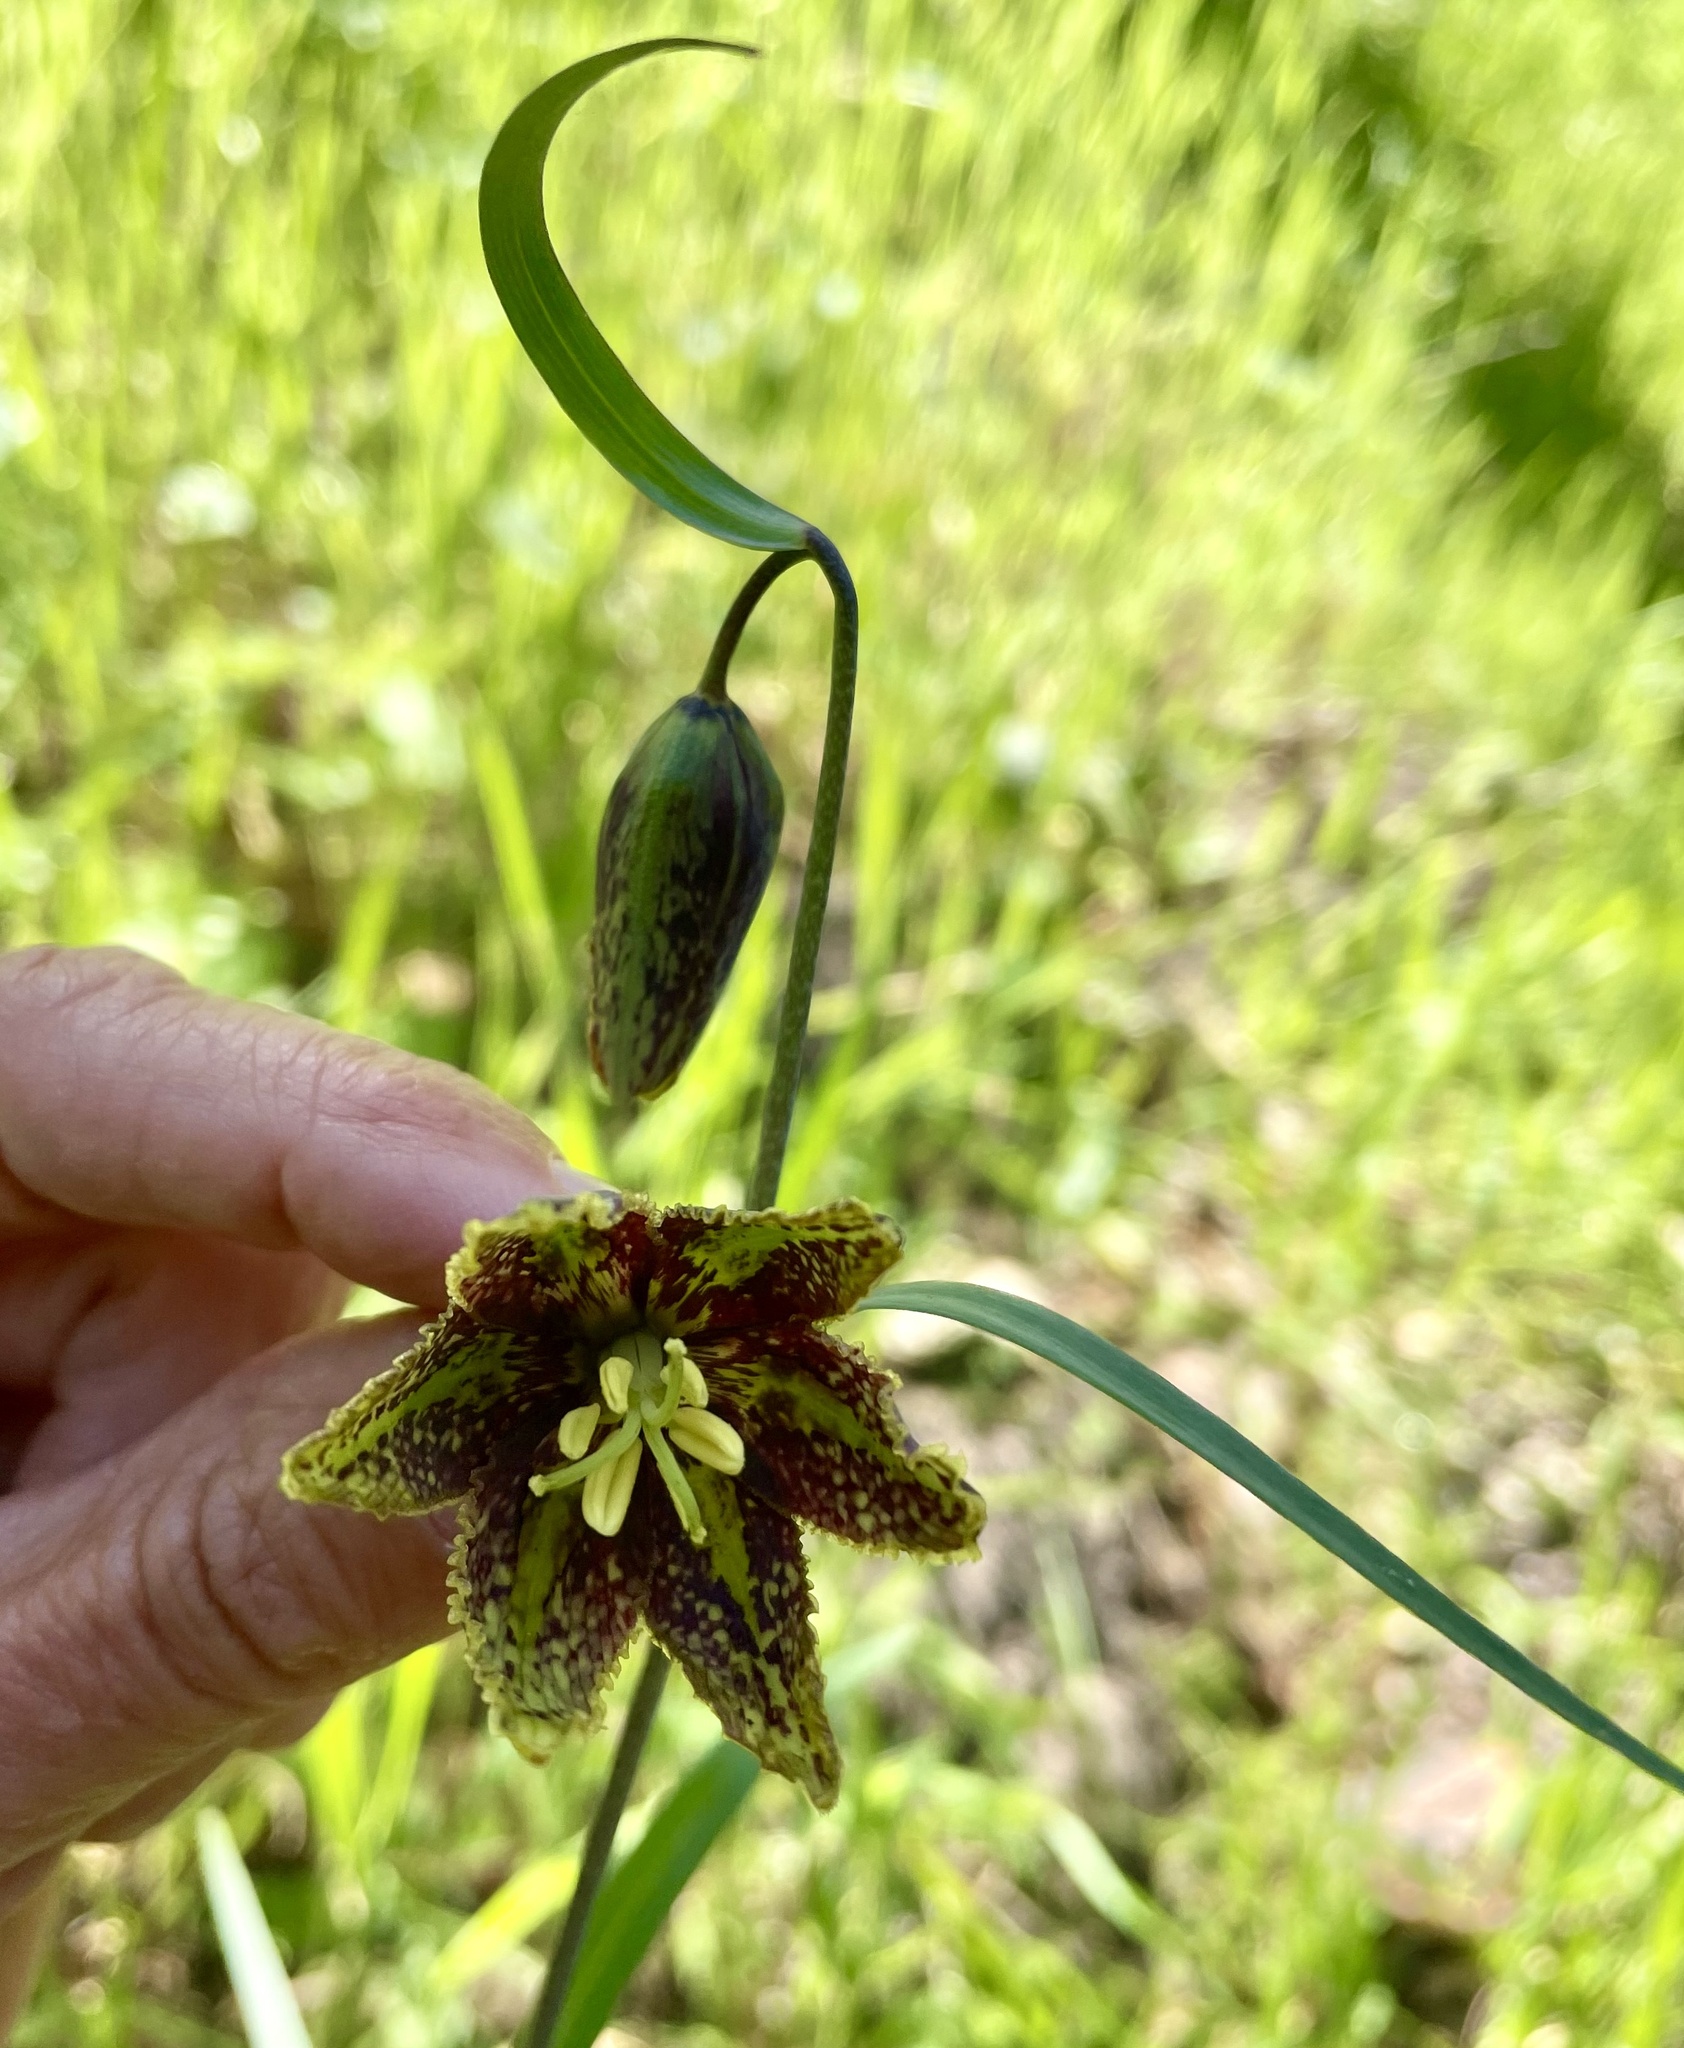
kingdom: Plantae
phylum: Tracheophyta
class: Liliopsida
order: Liliales
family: Liliaceae
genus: Fritillaria
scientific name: Fritillaria affinis
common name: Ojai fritillary
